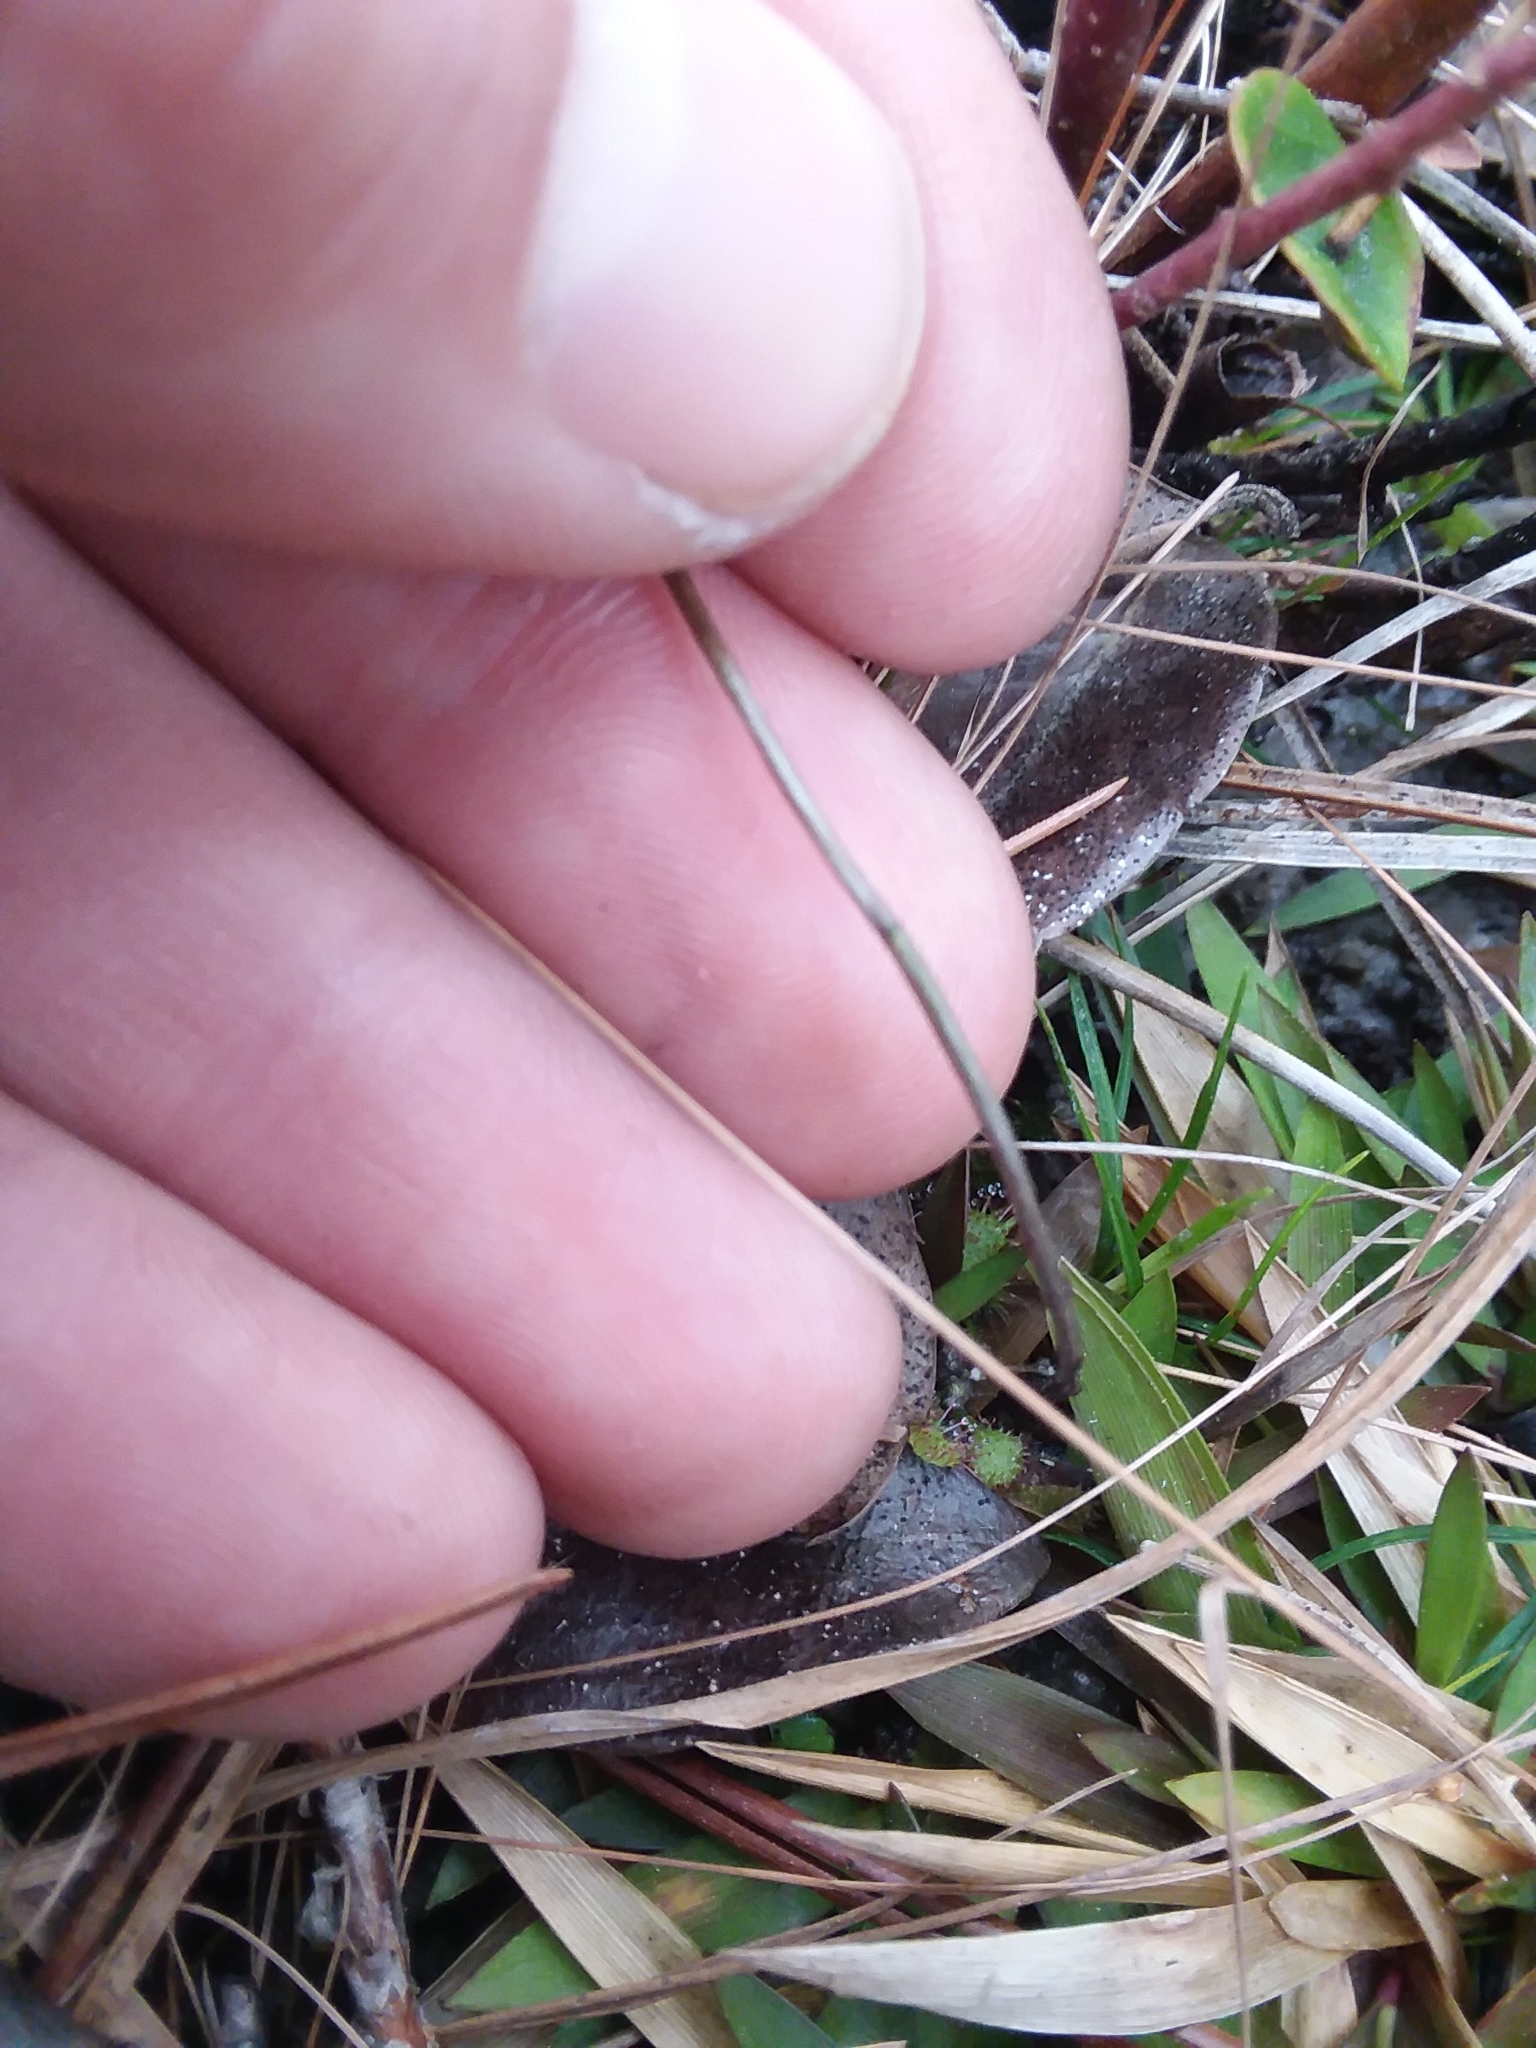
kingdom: Plantae
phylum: Tracheophyta
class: Magnoliopsida
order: Gentianales
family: Gentianaceae
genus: Bartonia
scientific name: Bartonia verna
